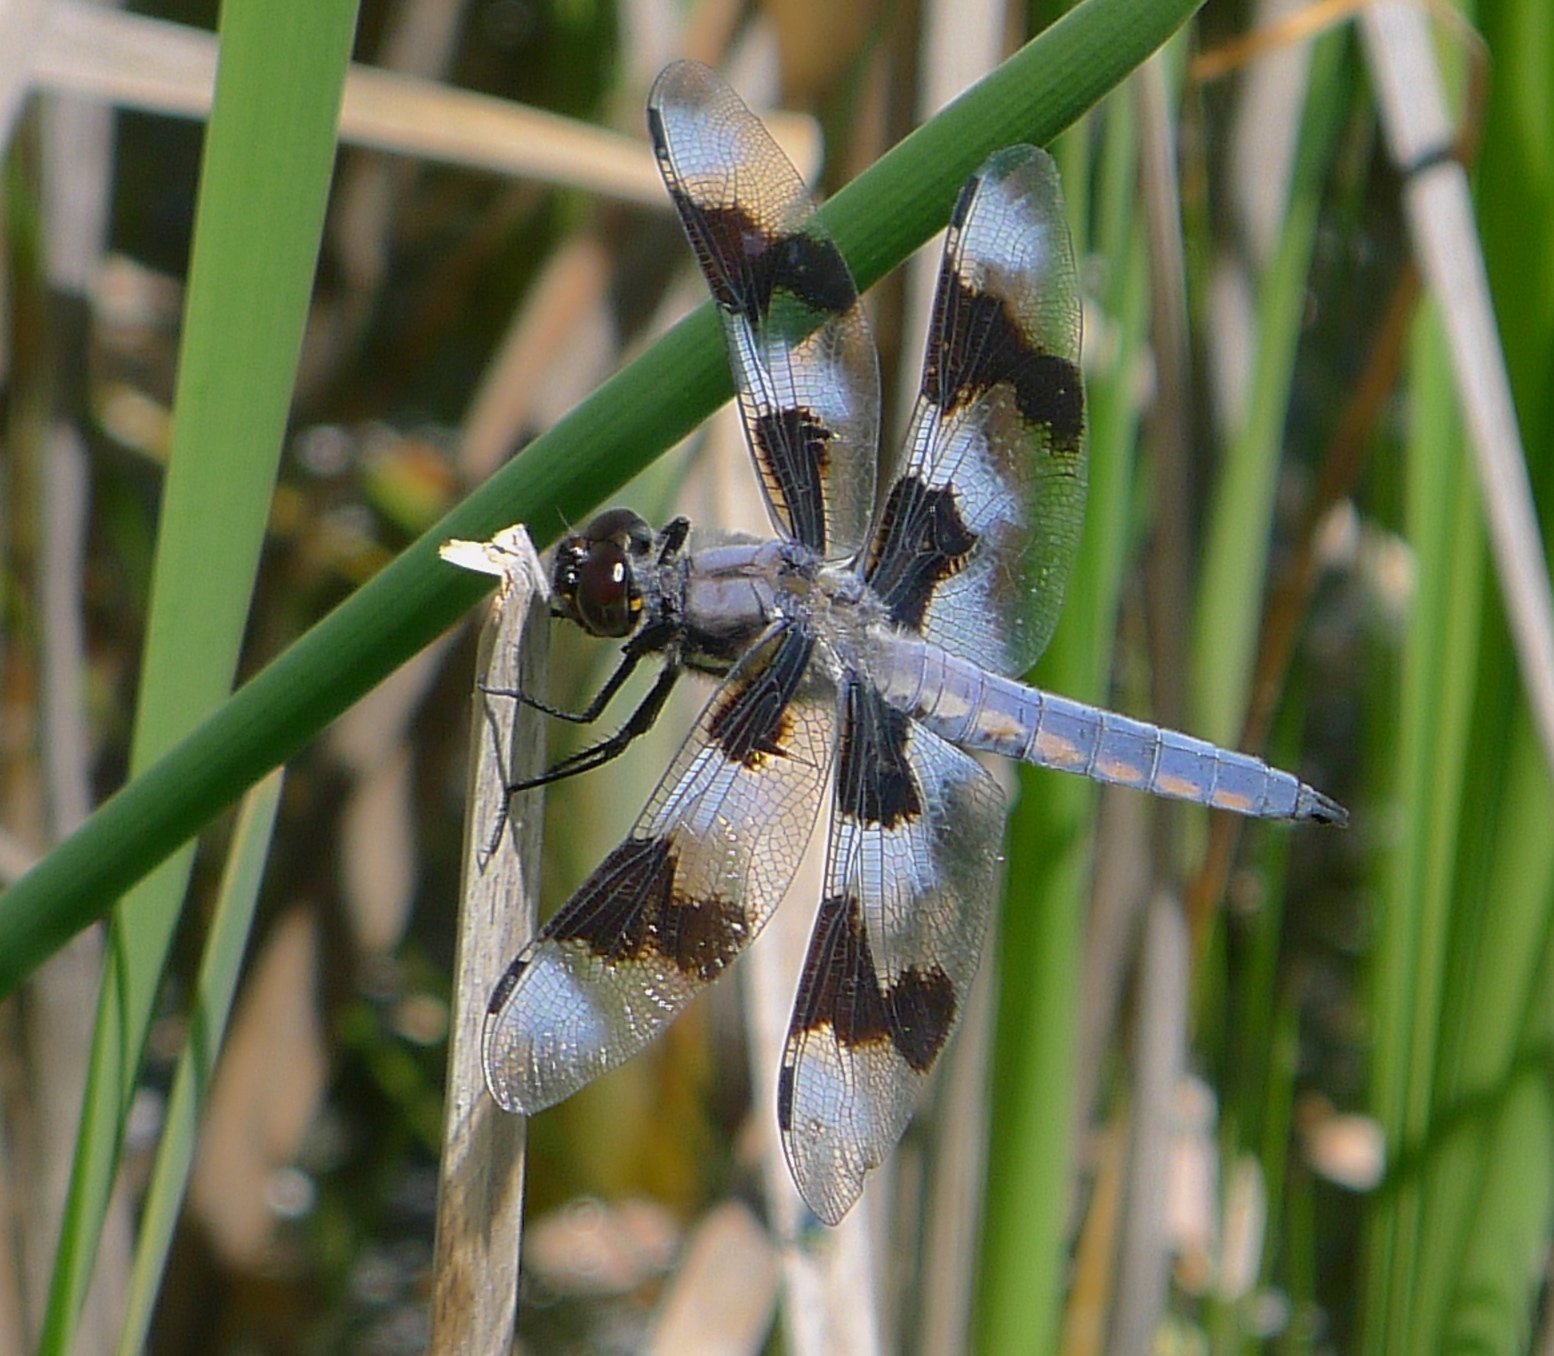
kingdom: Animalia
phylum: Arthropoda
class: Insecta
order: Odonata
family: Libellulidae
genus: Libellula
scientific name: Libellula forensis
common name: Eight-spotted skimmer
